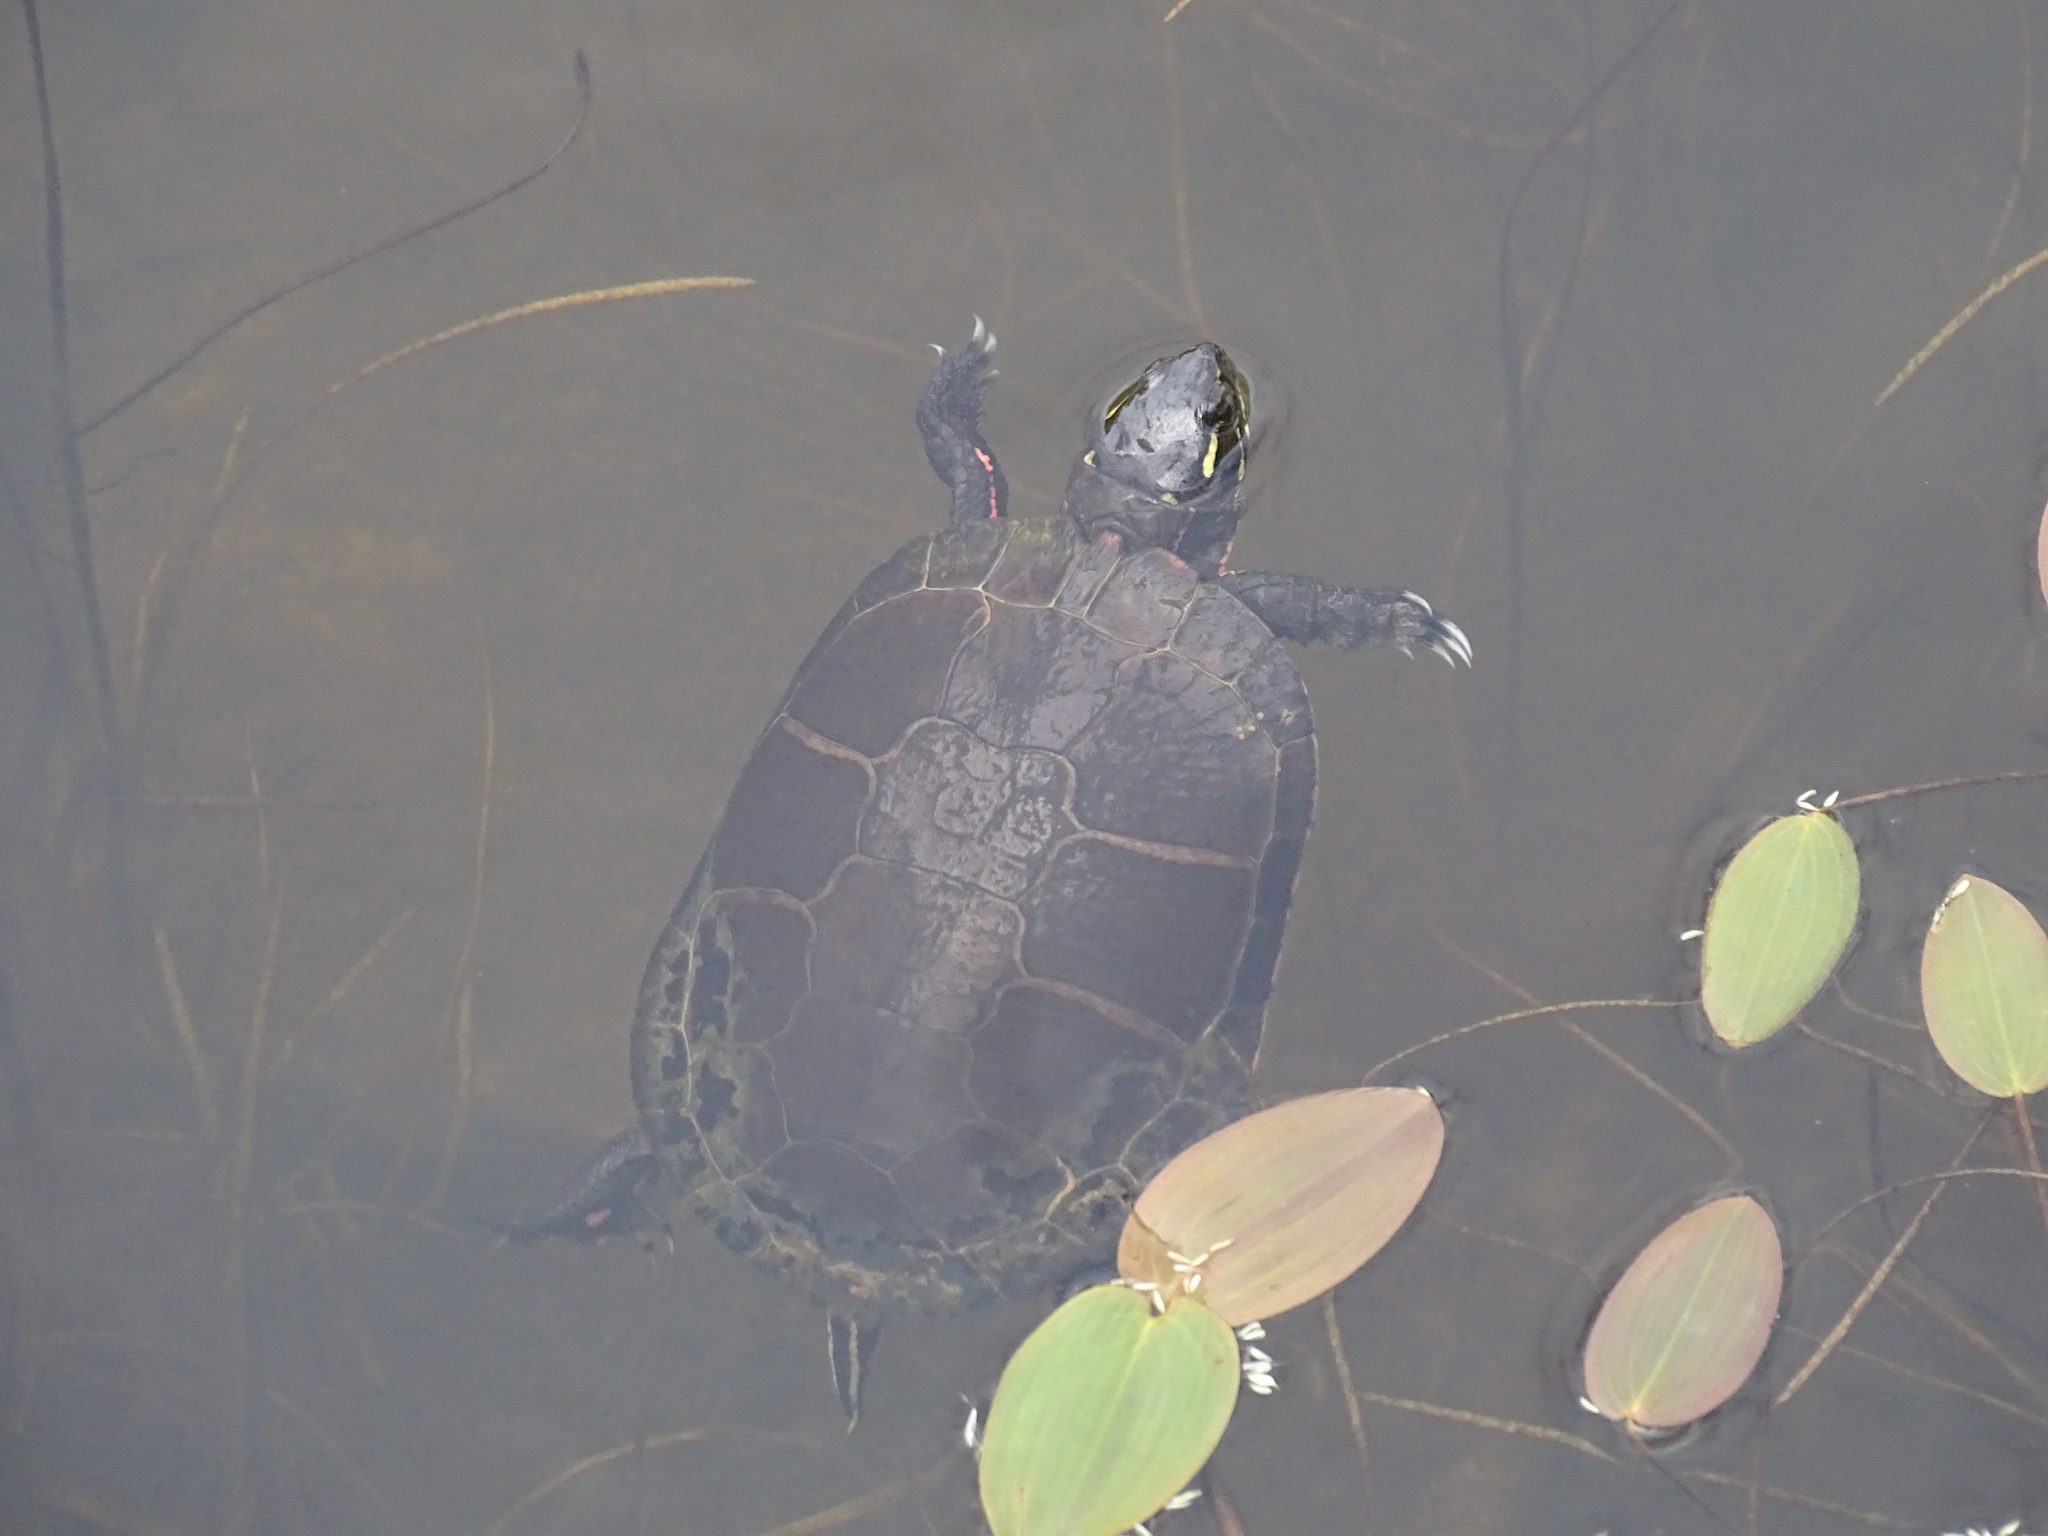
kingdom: Animalia
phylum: Chordata
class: Testudines
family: Emydidae
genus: Chrysemys
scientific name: Chrysemys picta
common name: Painted turtle
